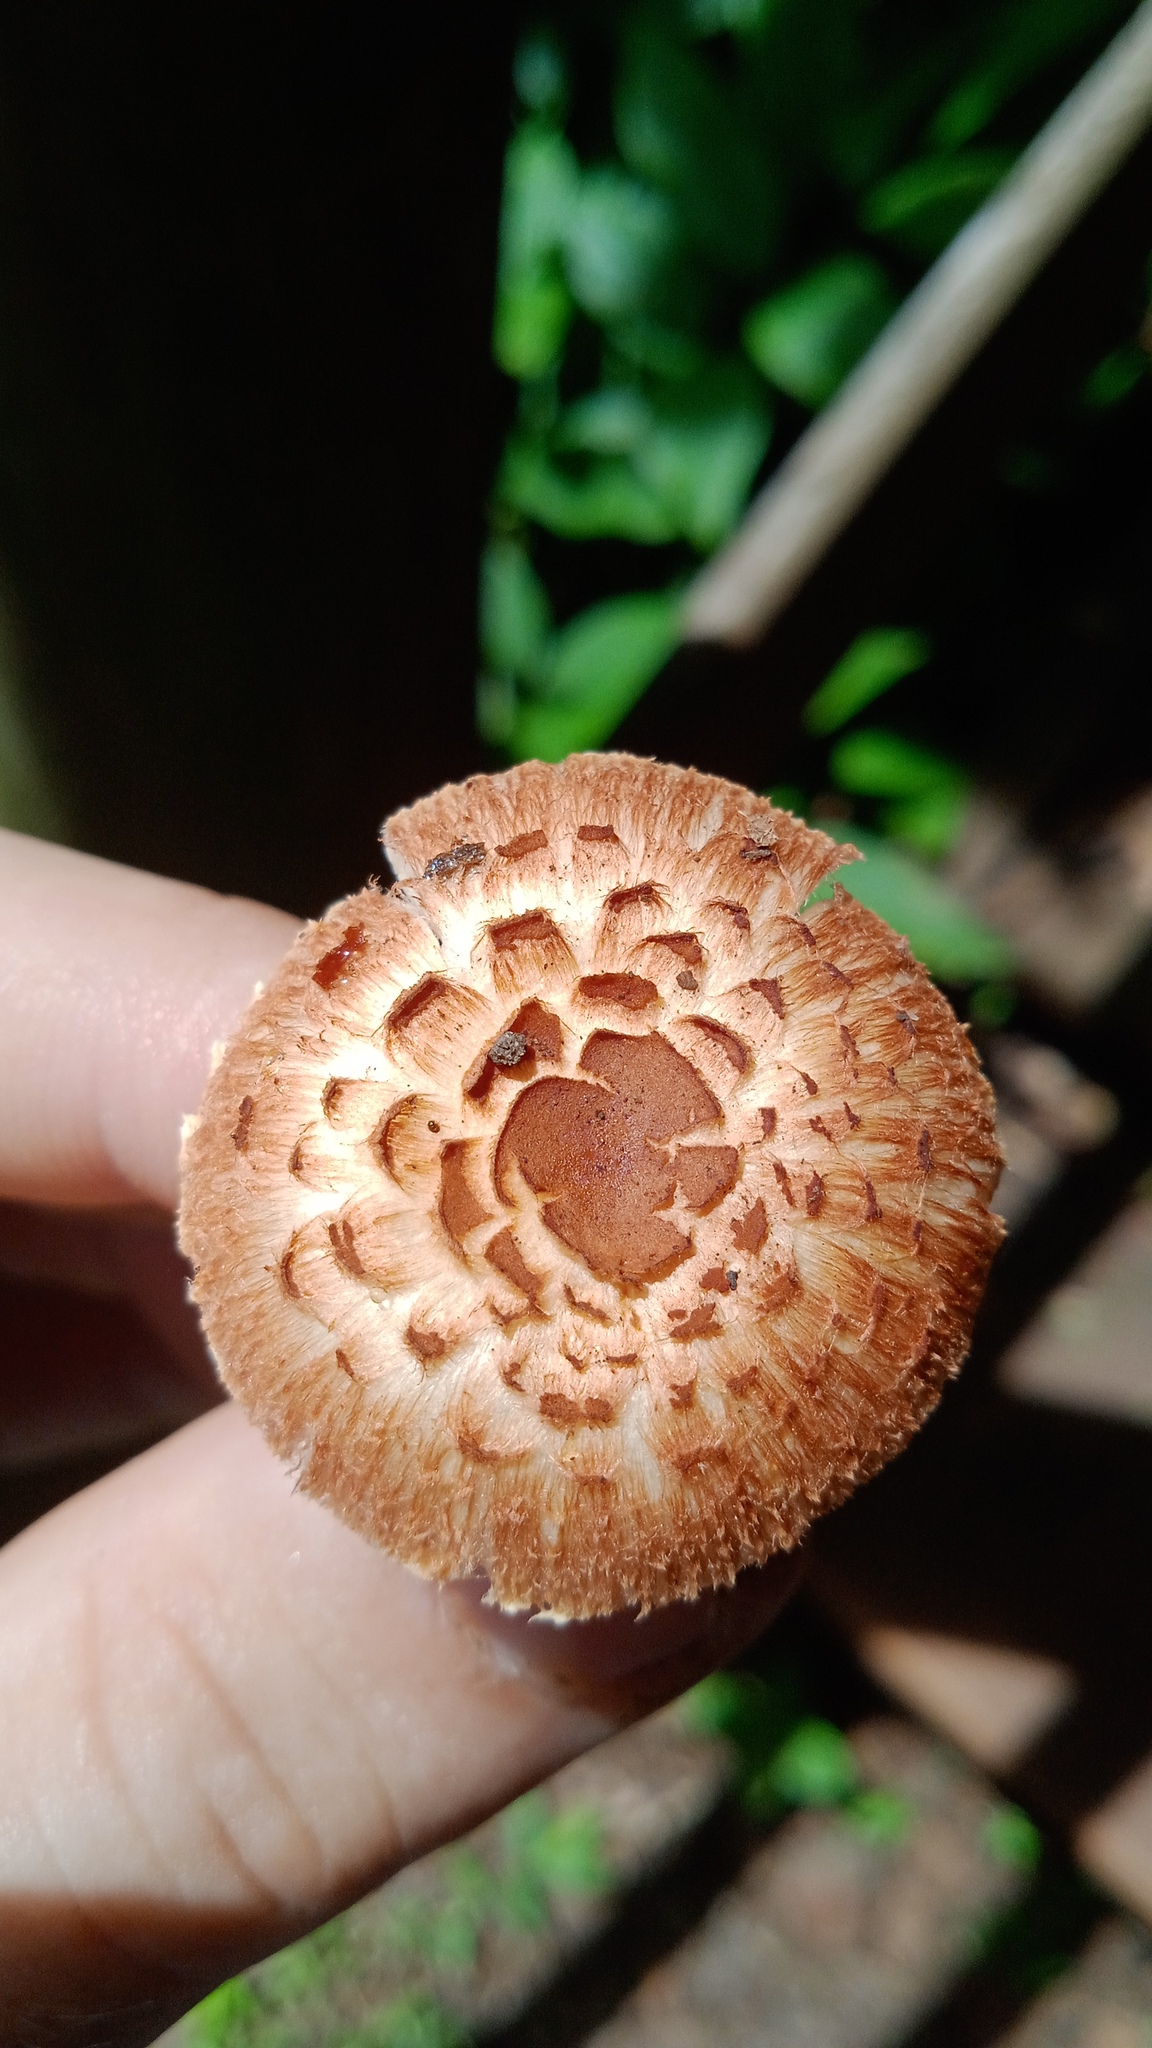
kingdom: Fungi
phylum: Basidiomycota
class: Agaricomycetes
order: Agaricales
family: Agaricaceae
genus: Rugosospora
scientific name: Rugosospora pseudorubiginosa
